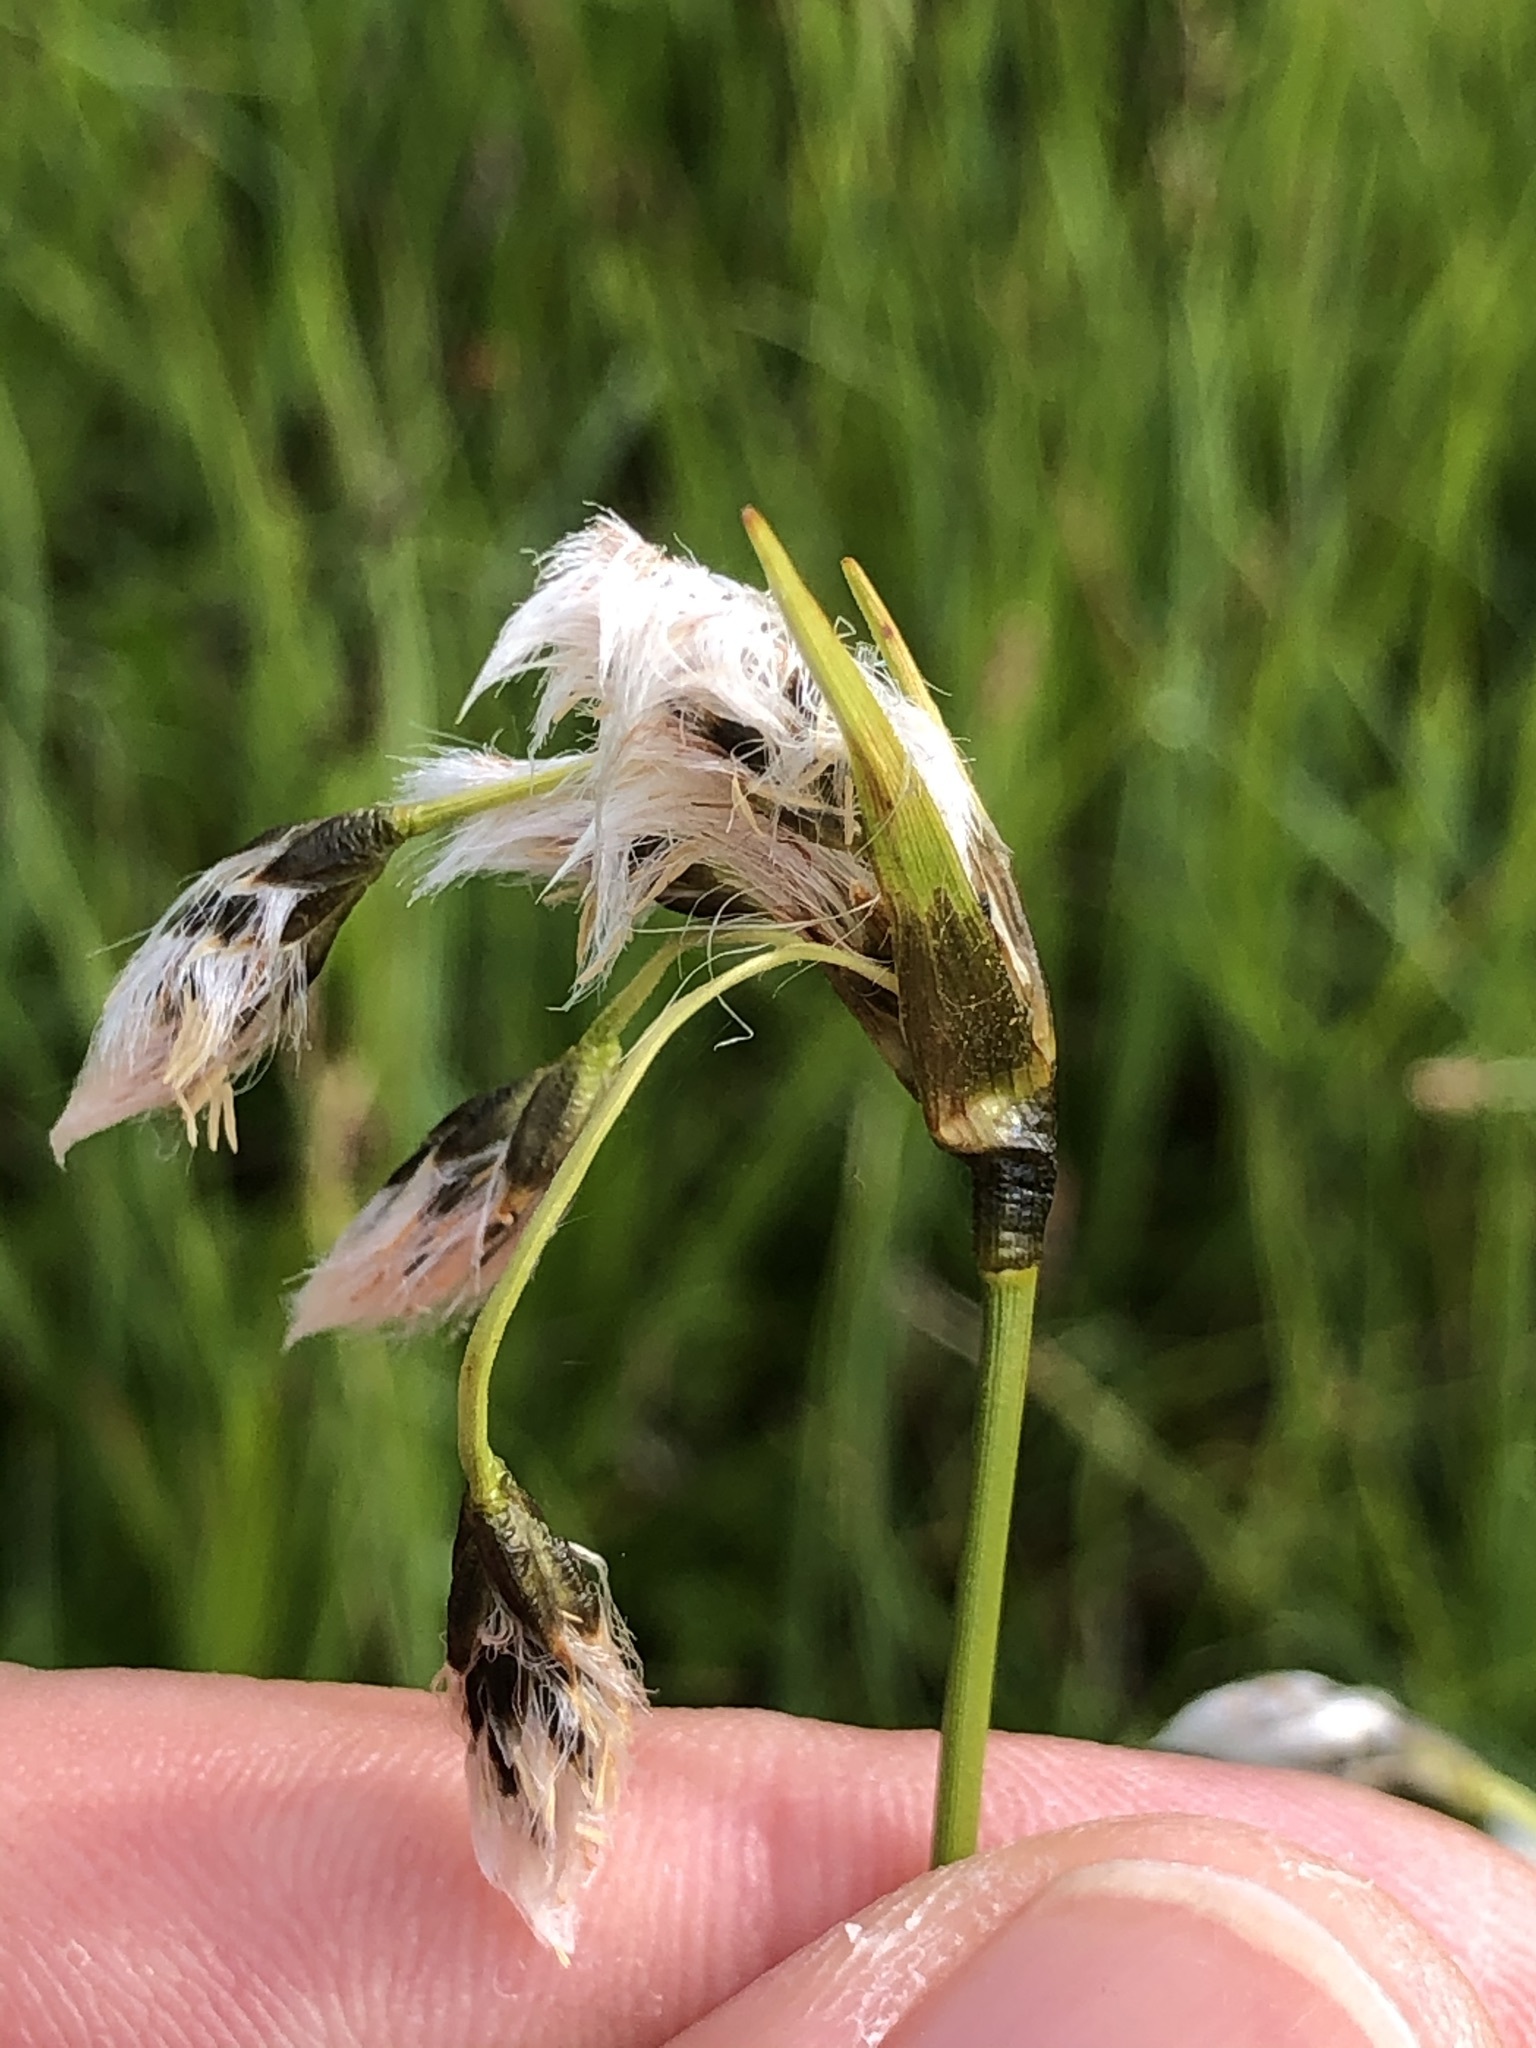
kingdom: Plantae
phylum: Tracheophyta
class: Liliopsida
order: Poales
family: Cyperaceae
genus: Eriophorum
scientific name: Eriophorum latifolium
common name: Broad-leaved cottongrass
